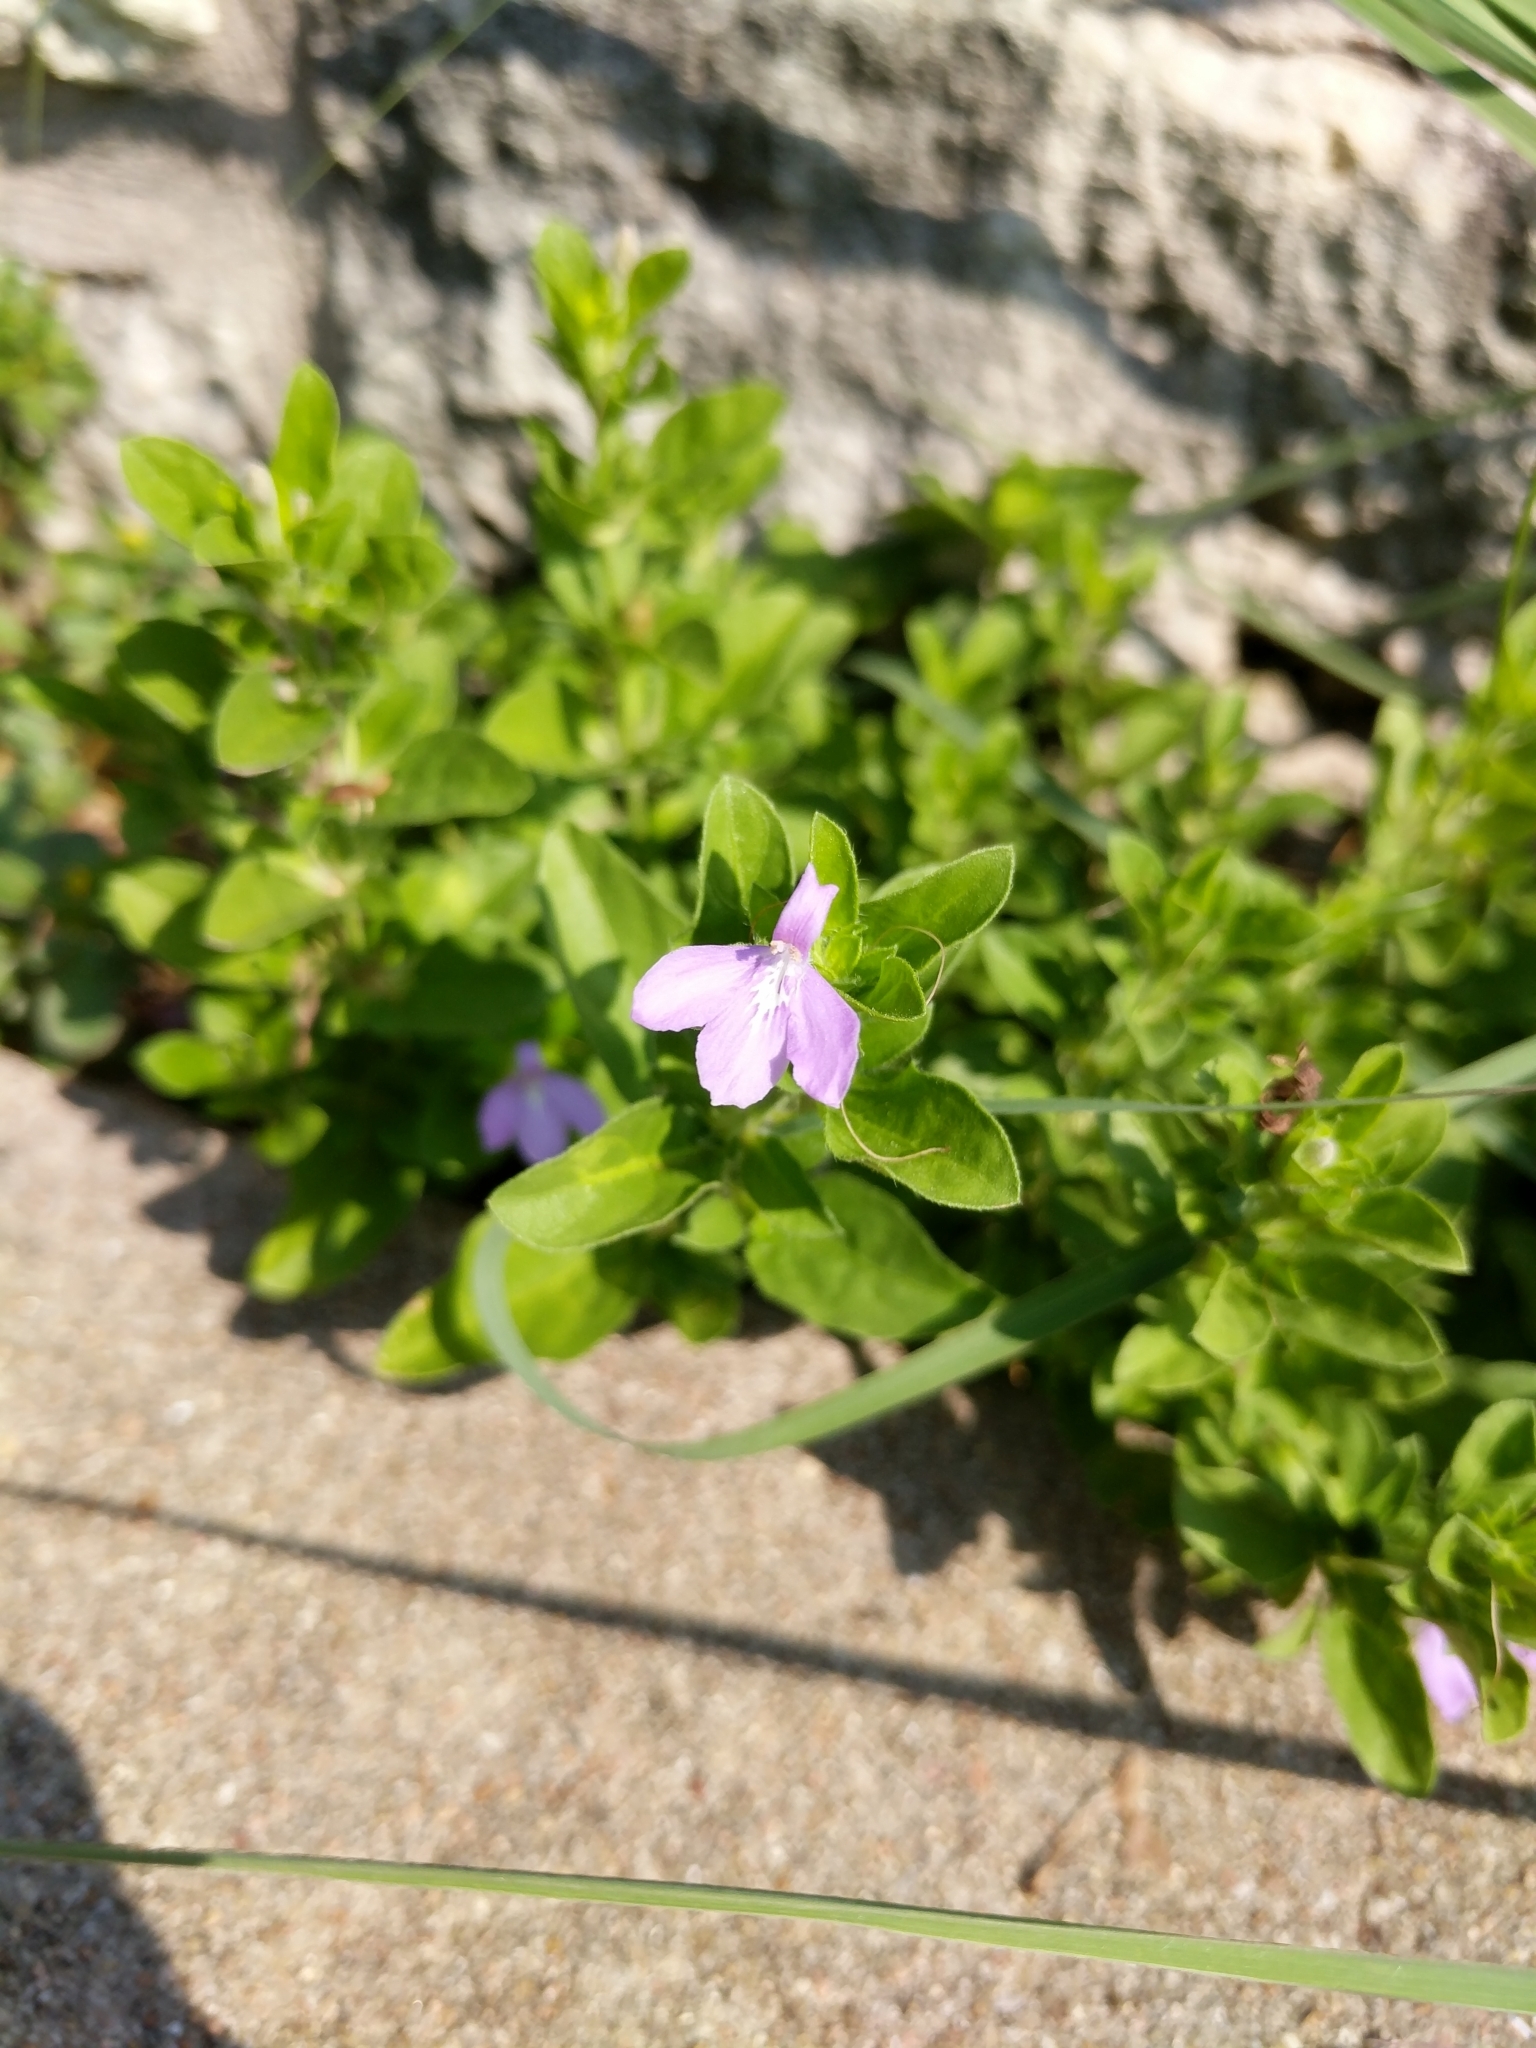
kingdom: Plantae
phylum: Tracheophyta
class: Magnoliopsida
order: Lamiales
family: Acanthaceae
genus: Justicia
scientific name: Justicia pilosella
